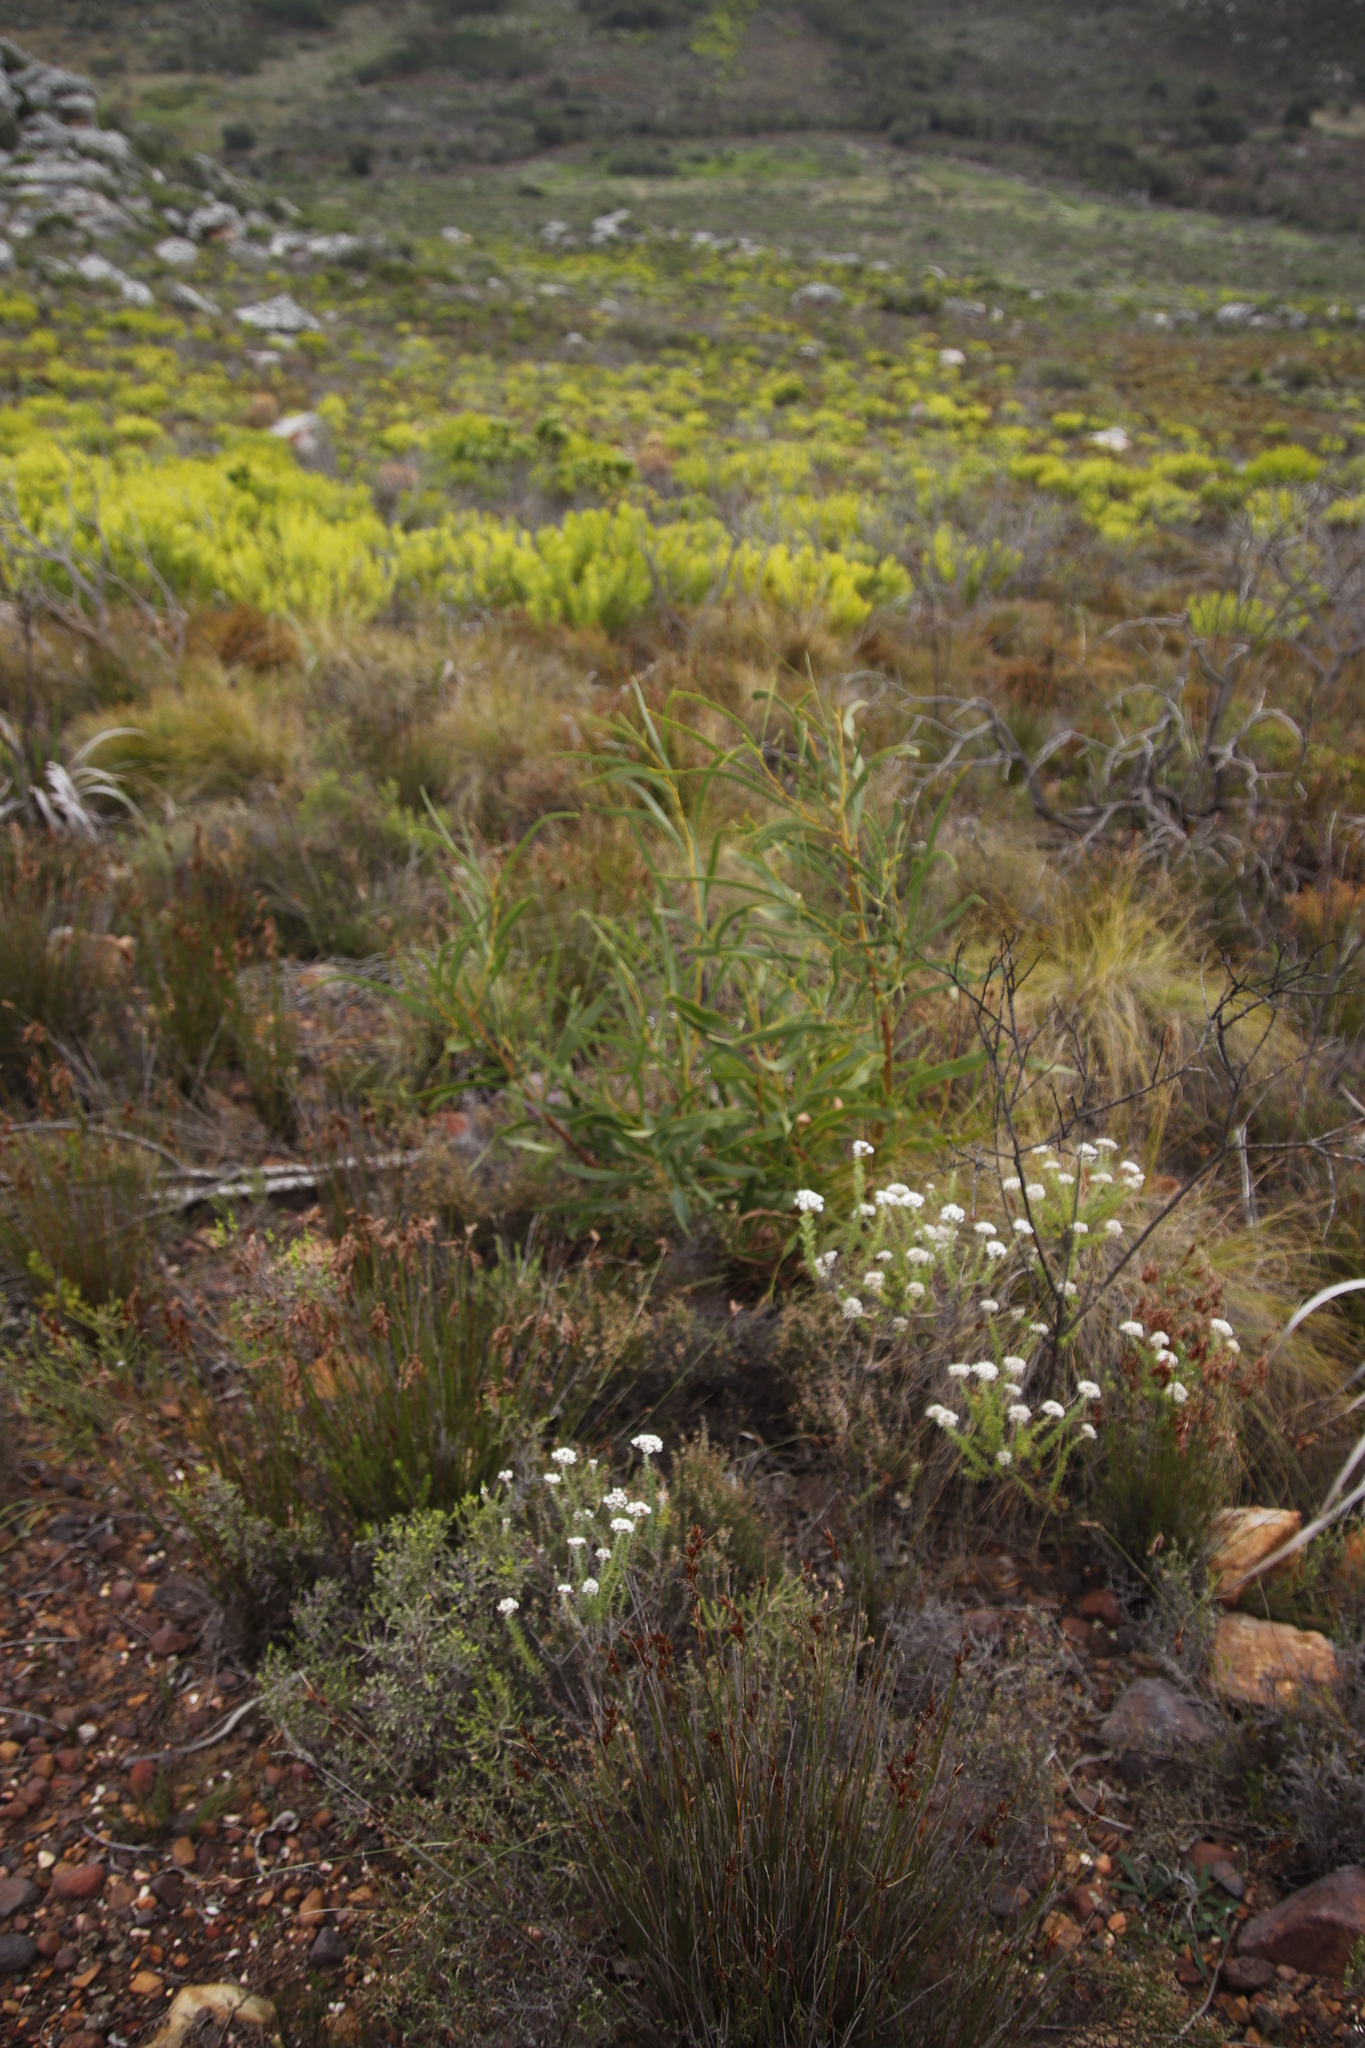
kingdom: Plantae
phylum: Tracheophyta
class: Magnoliopsida
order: Fabales
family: Fabaceae
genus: Acacia
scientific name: Acacia saligna
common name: Orange wattle
